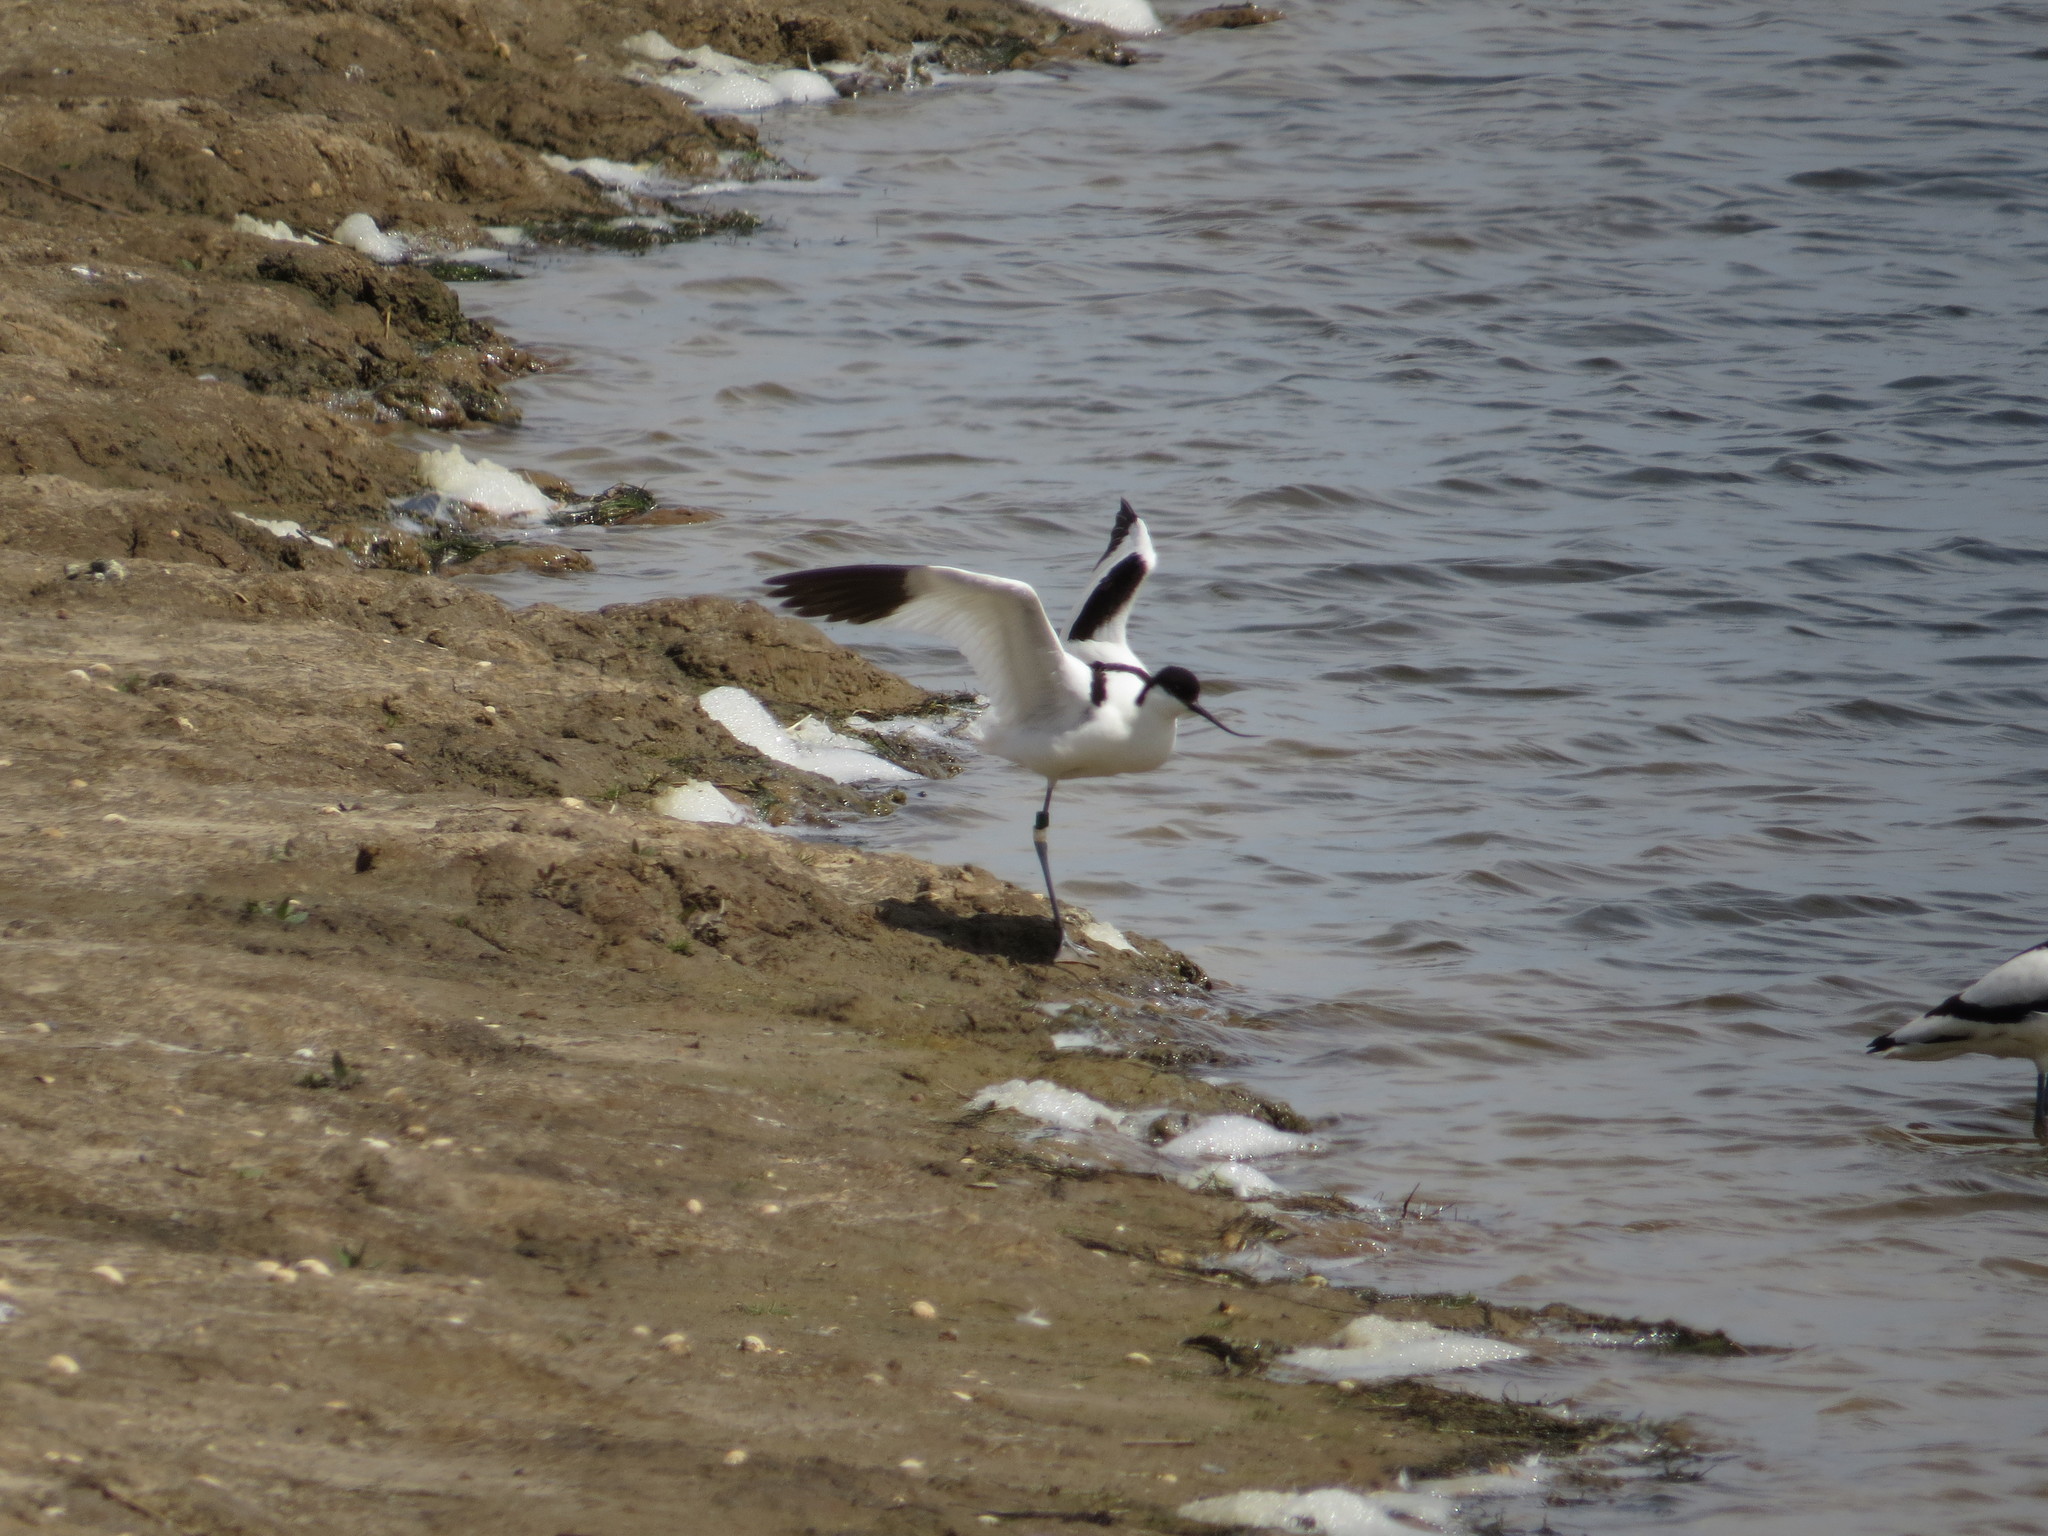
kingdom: Animalia
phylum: Chordata
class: Aves
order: Charadriiformes
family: Recurvirostridae
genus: Recurvirostra
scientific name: Recurvirostra avosetta
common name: Pied avocet
